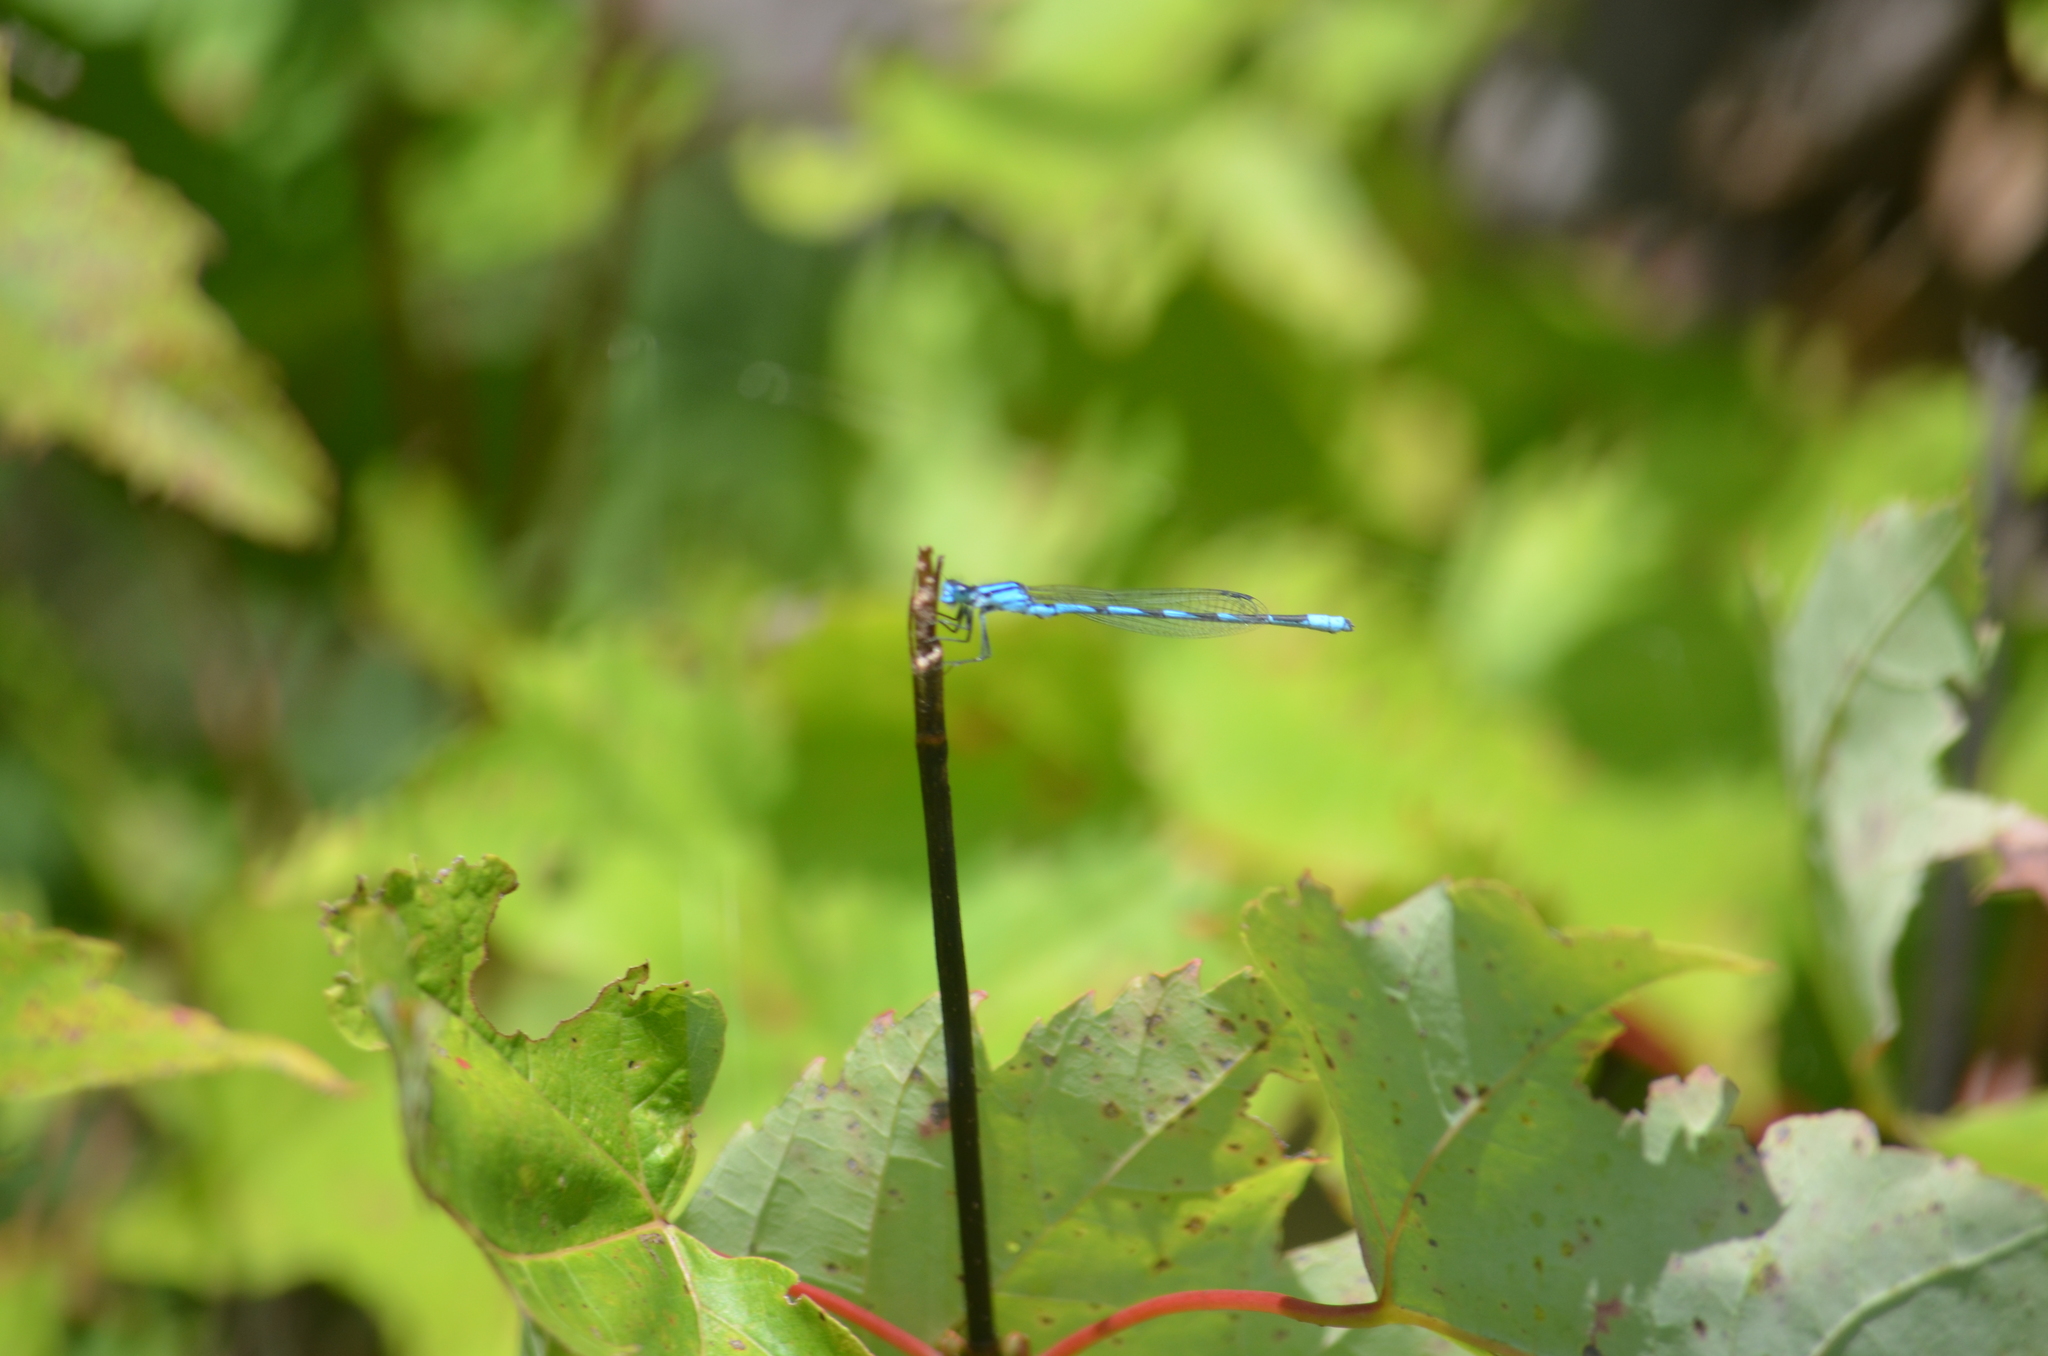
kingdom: Animalia
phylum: Arthropoda
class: Insecta
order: Odonata
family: Coenagrionidae
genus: Enallagma
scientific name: Enallagma hageni
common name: Hagen's bluet
